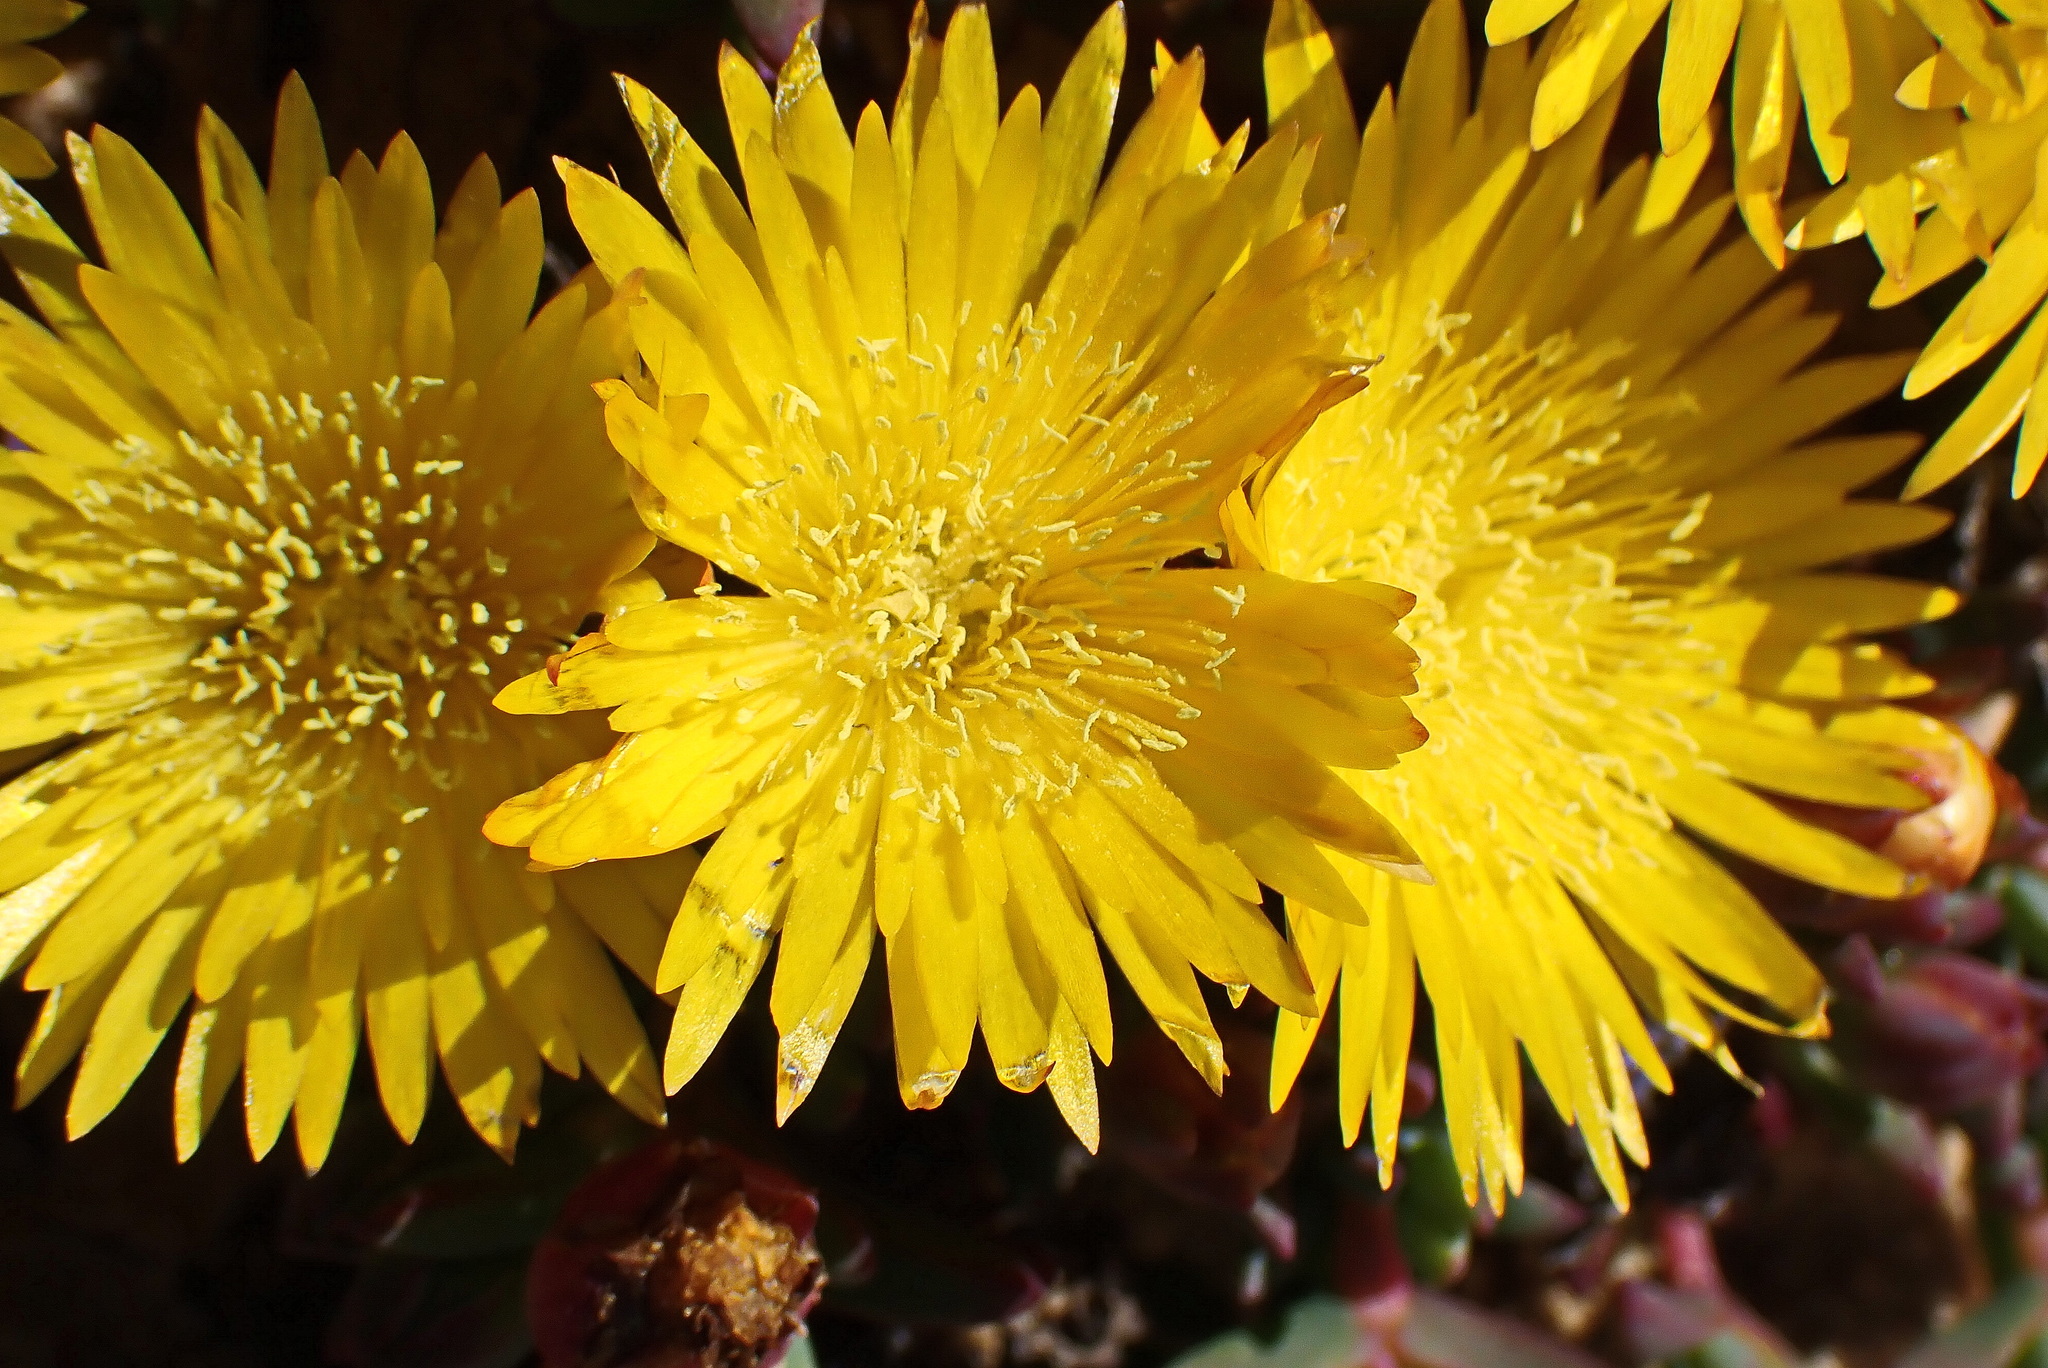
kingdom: Plantae
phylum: Tracheophyta
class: Magnoliopsida
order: Caryophyllales
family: Aizoaceae
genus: Lampranthus
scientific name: Lampranthus glaucus
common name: Noonflower
